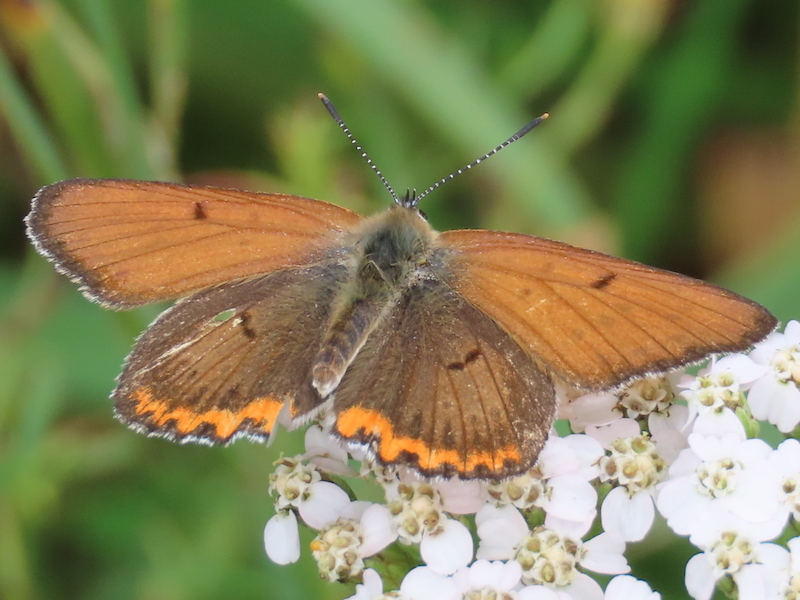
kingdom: Animalia
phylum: Arthropoda
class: Insecta
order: Lepidoptera
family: Lycaenidae
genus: Tharsalea
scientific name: Tharsalea hyllus
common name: Bronze copper
